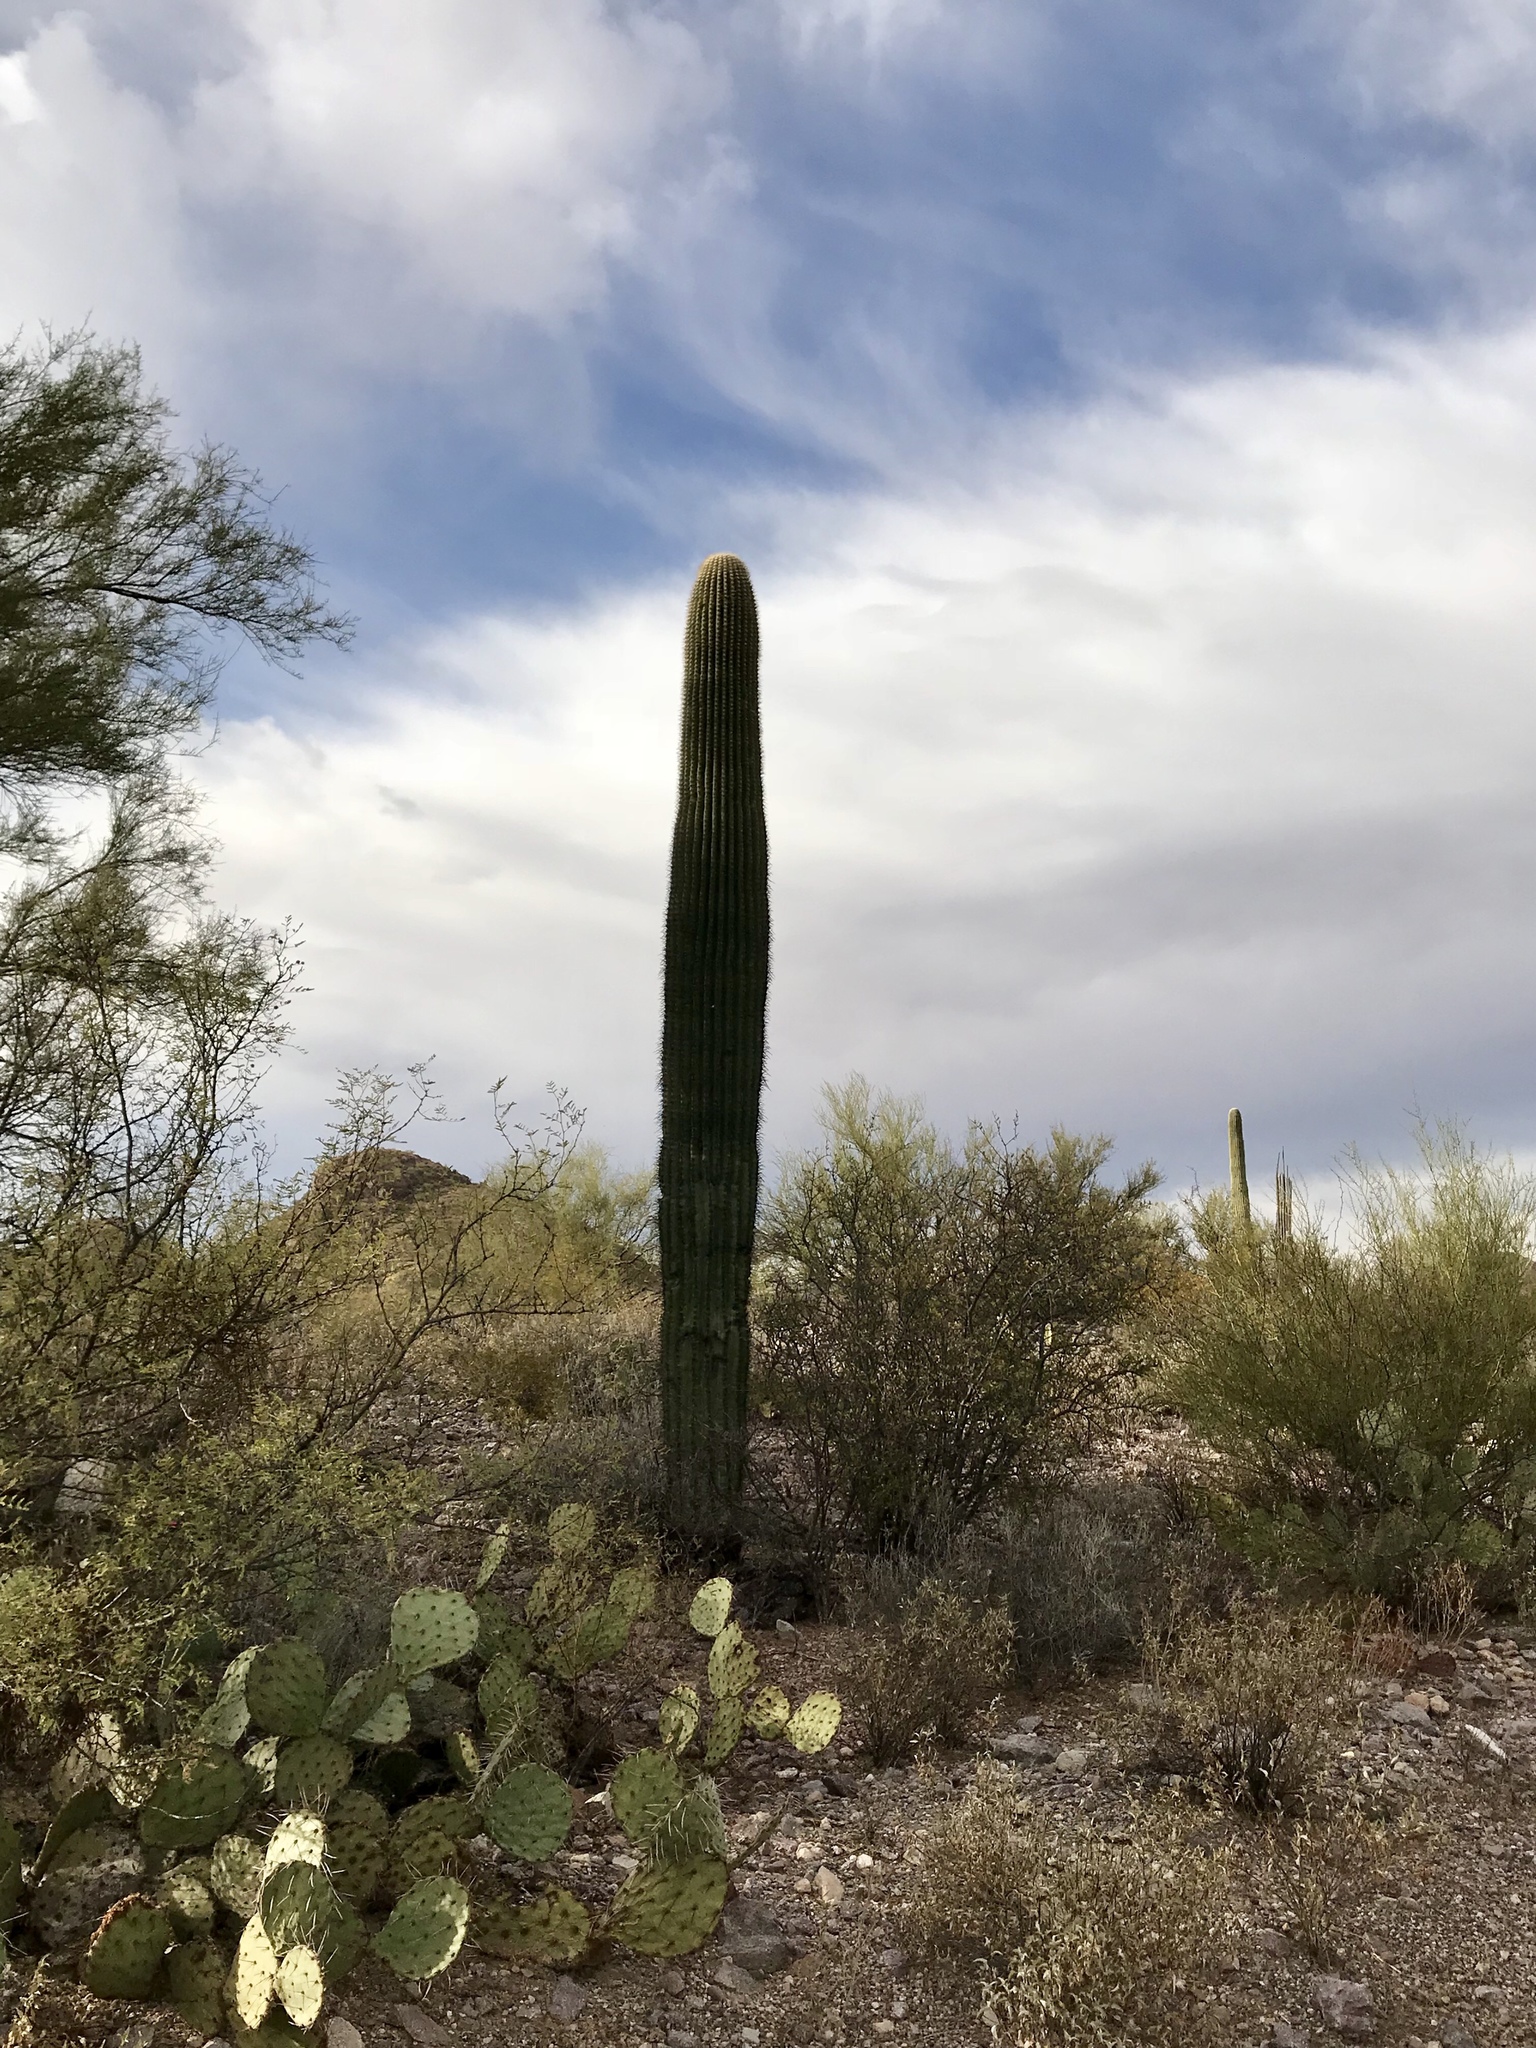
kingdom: Plantae
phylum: Tracheophyta
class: Magnoliopsida
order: Caryophyllales
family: Cactaceae
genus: Carnegiea
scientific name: Carnegiea gigantea
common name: Saguaro
